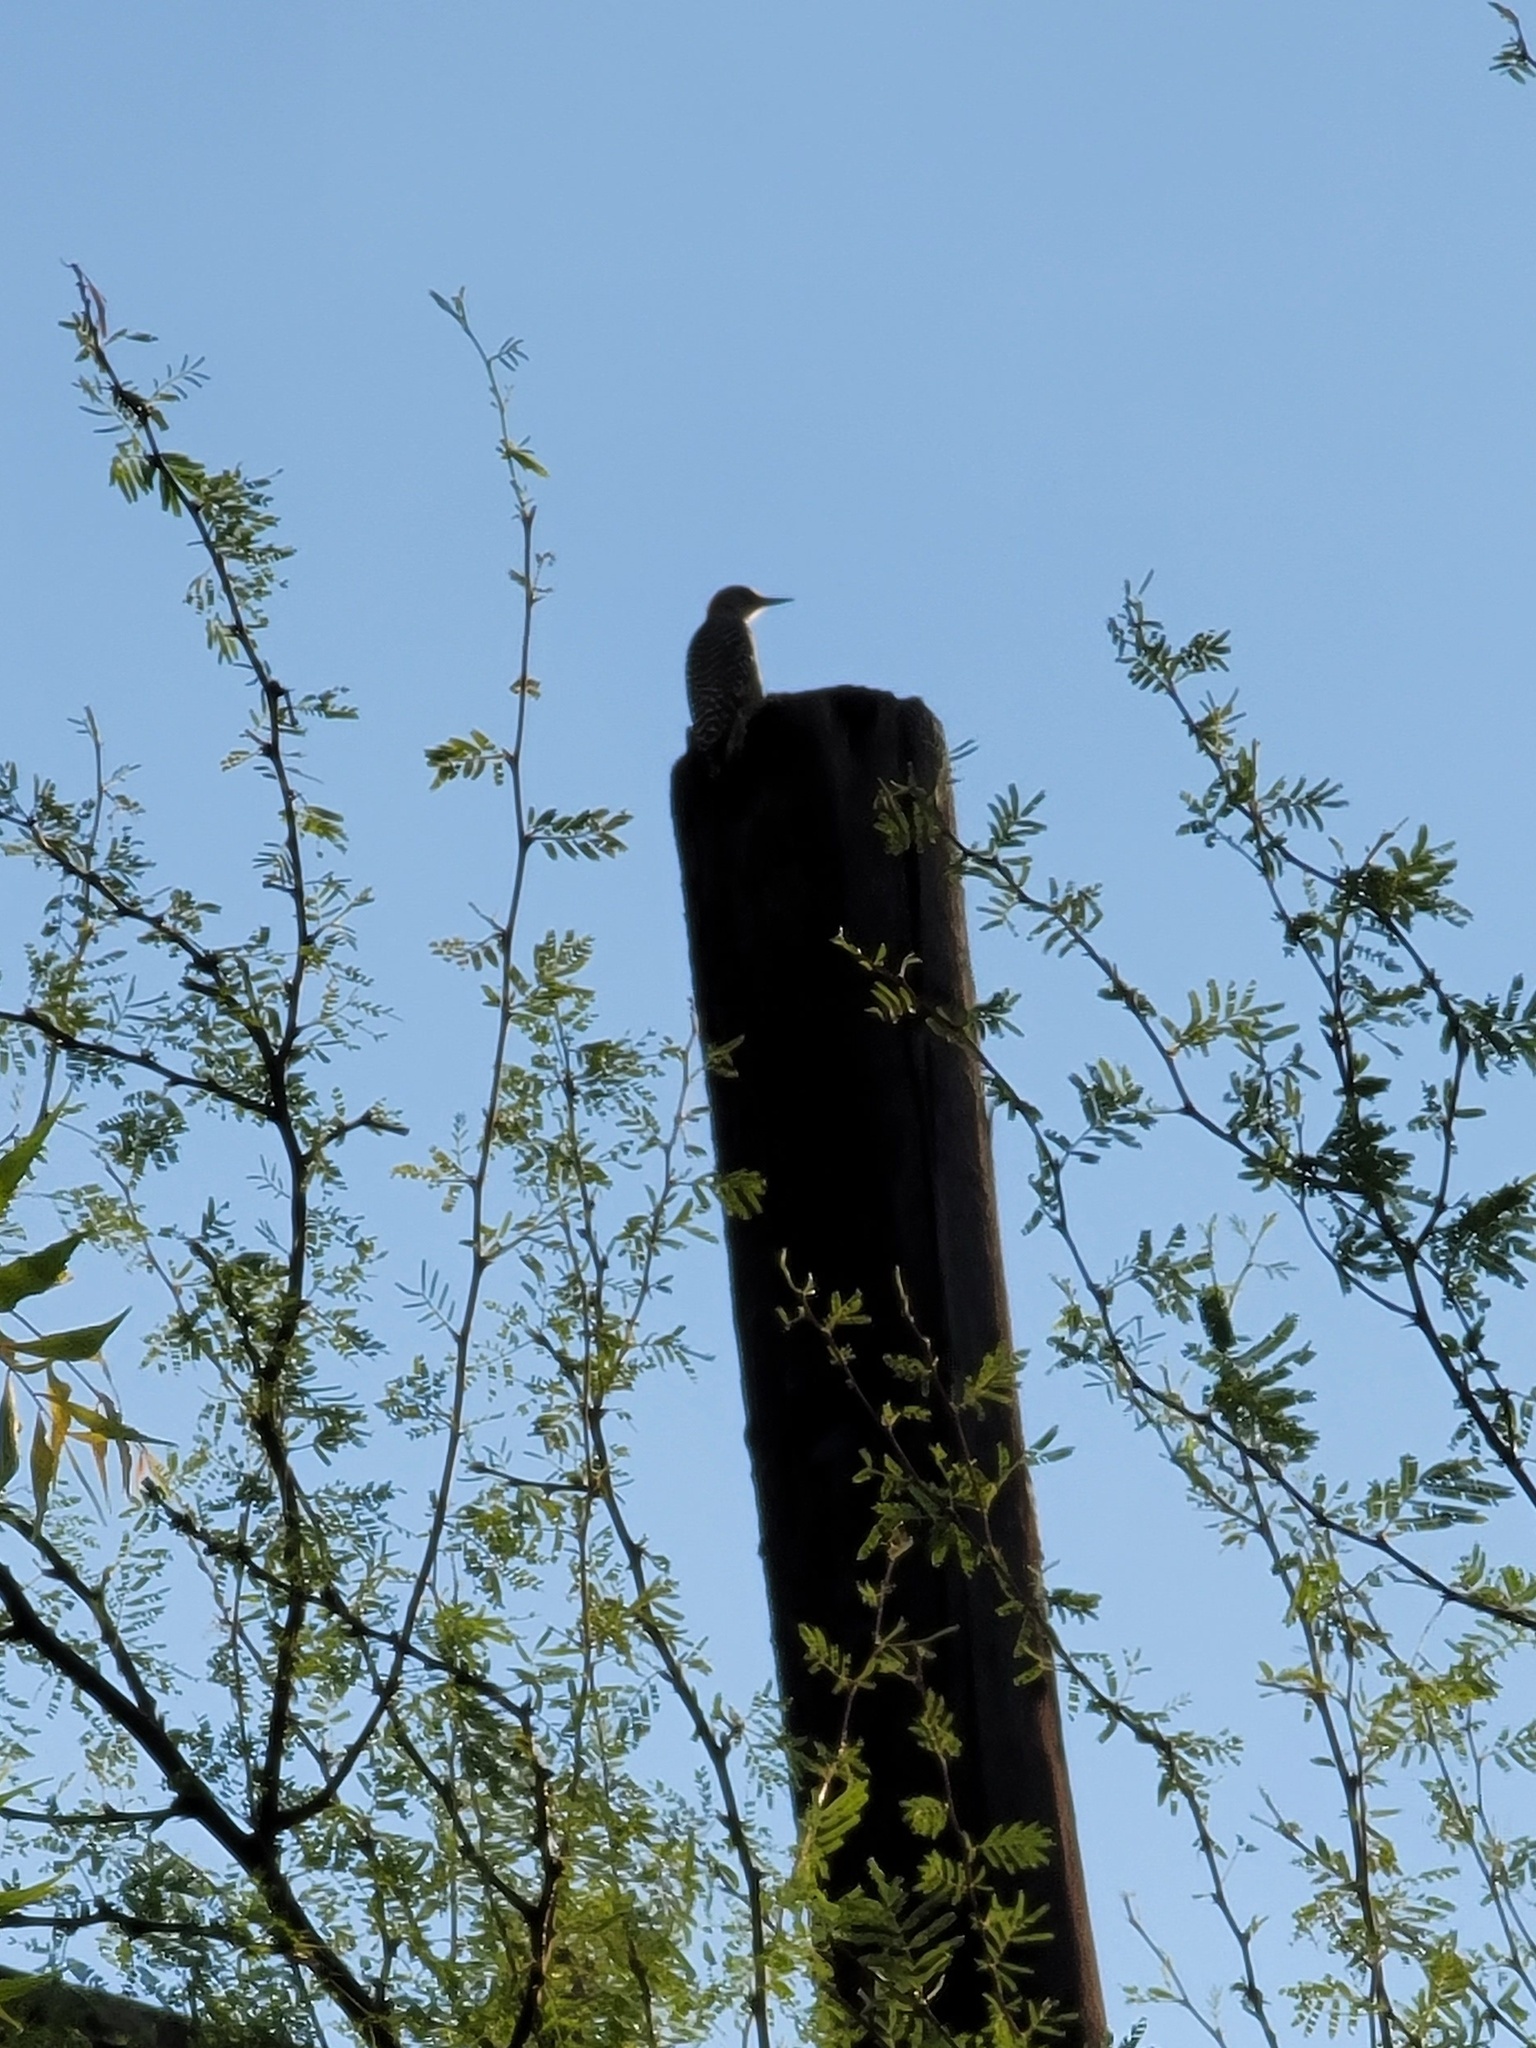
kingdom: Animalia
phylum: Chordata
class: Aves
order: Piciformes
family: Picidae
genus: Melanerpes
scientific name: Melanerpes aurifrons
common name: Golden-fronted woodpecker
